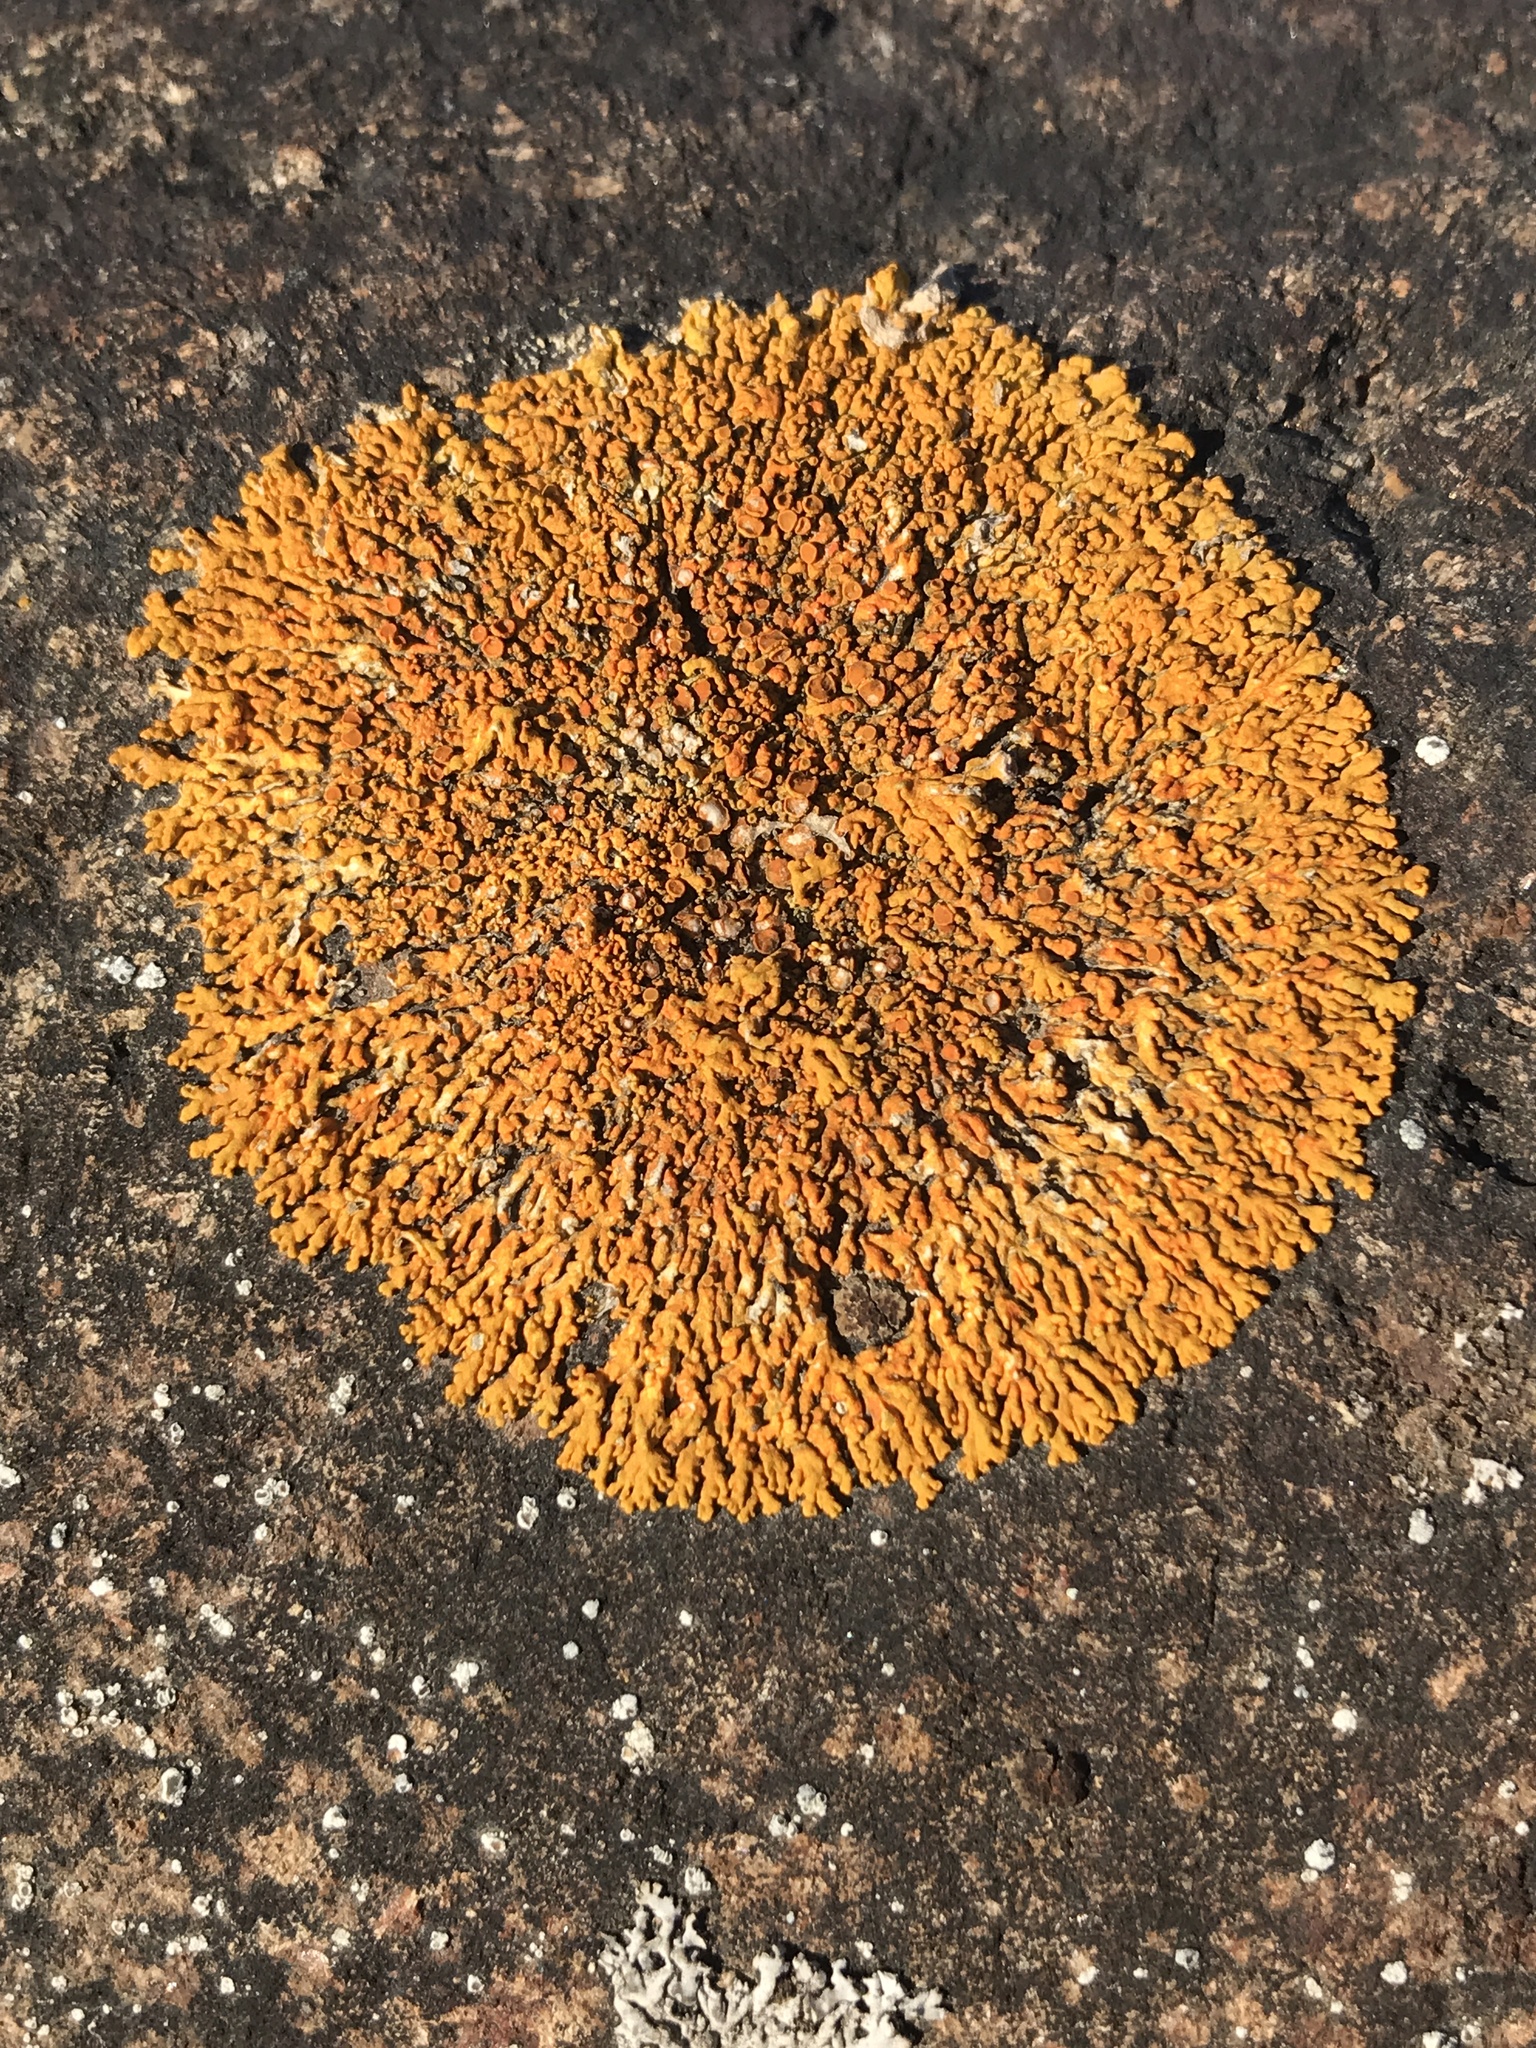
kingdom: Fungi
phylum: Ascomycota
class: Lecanoromycetes
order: Teloschistales
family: Teloschistaceae
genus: Xanthoria
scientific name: Xanthoria elegans
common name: Elegant sunburst lichen
